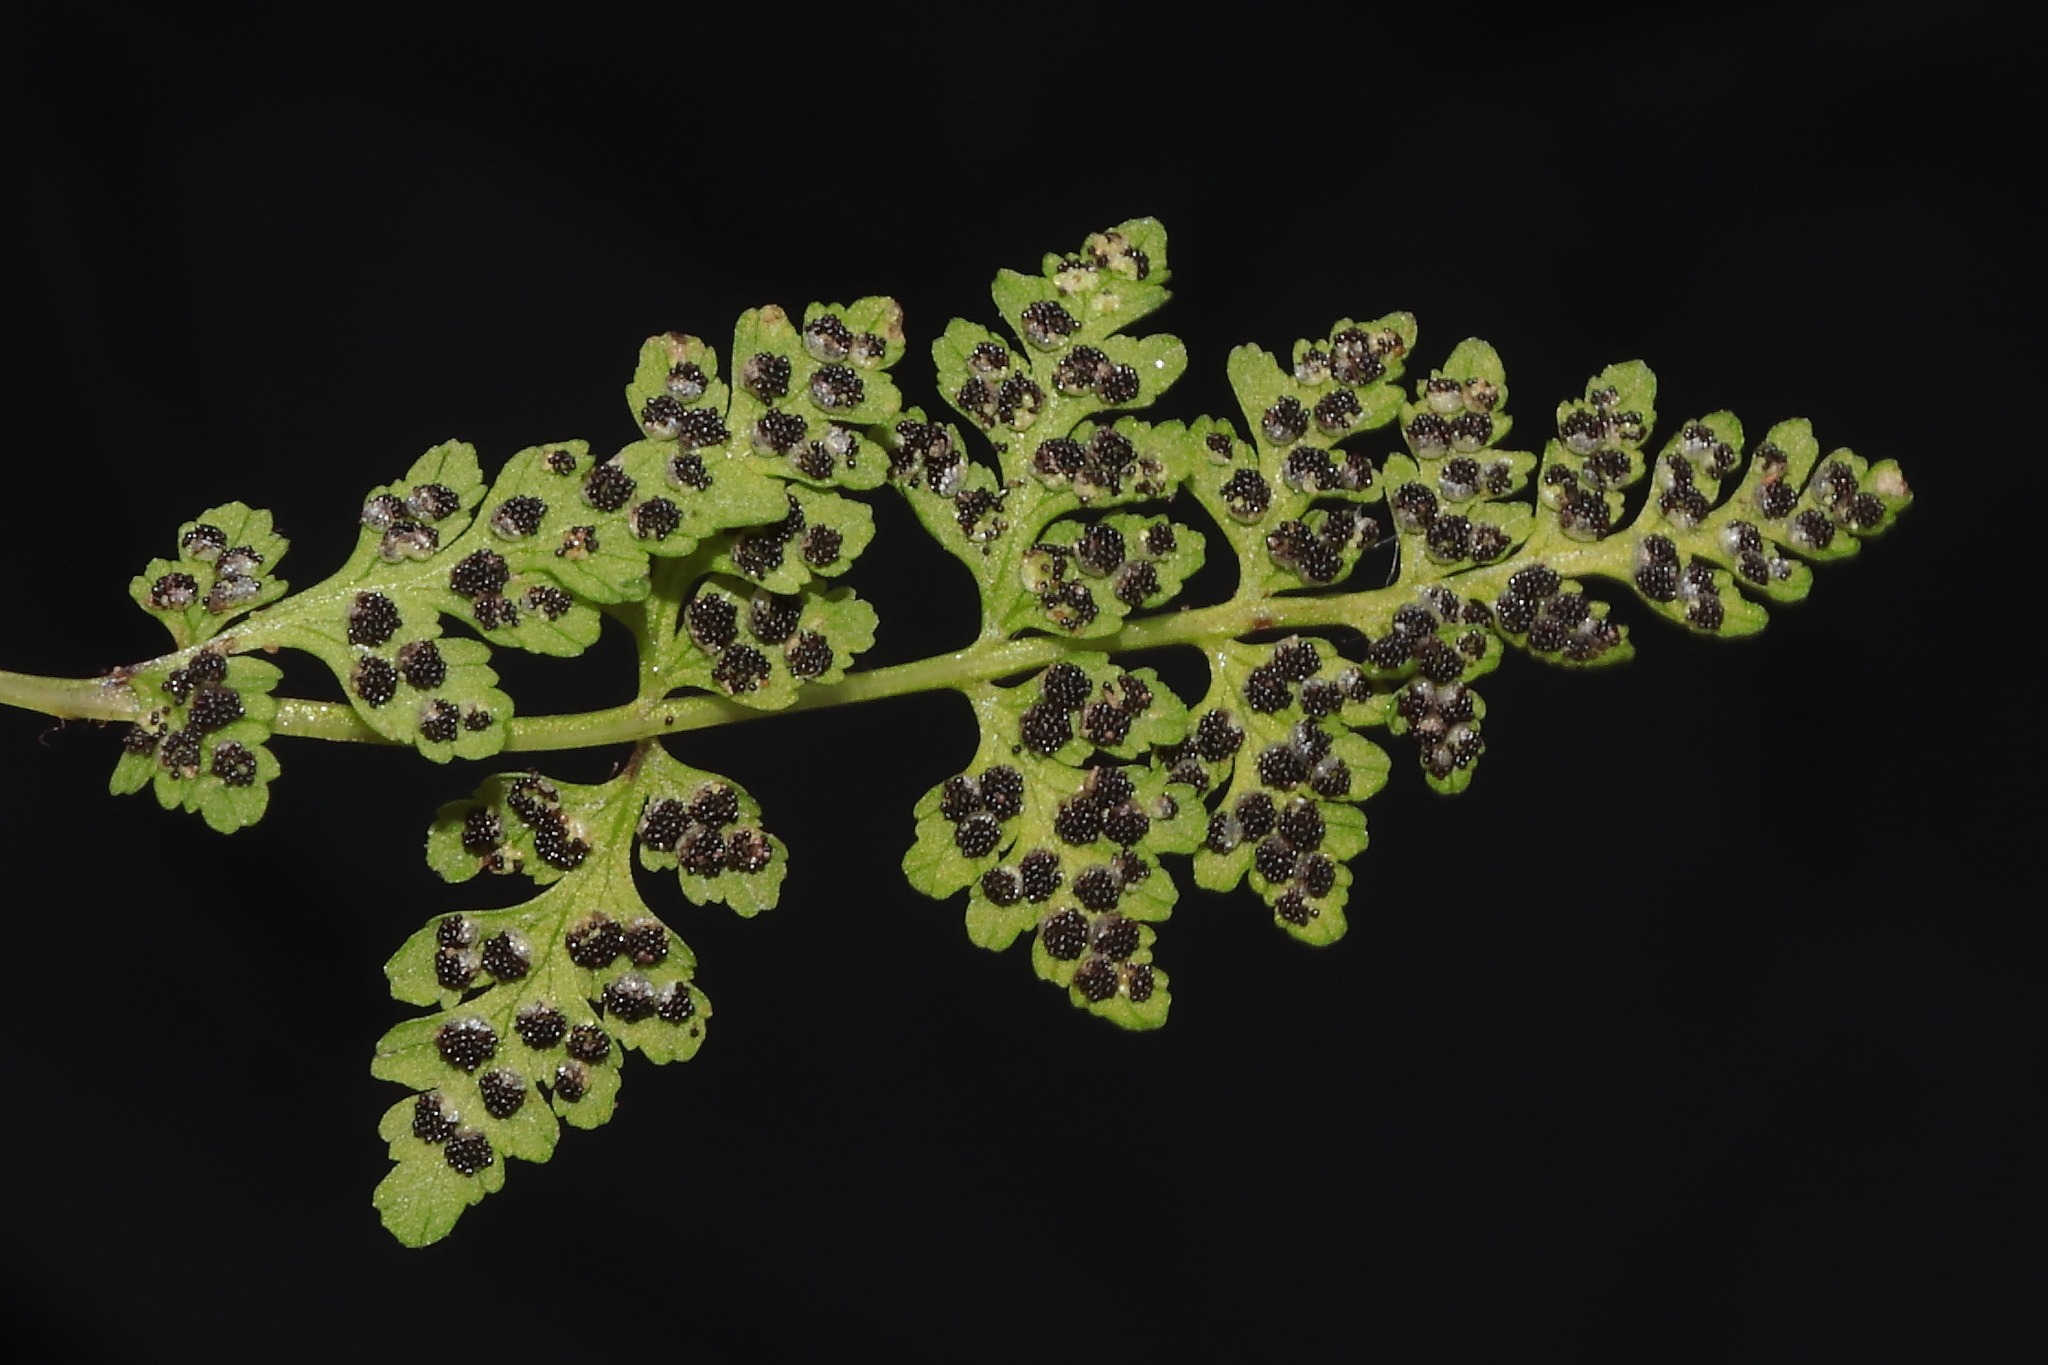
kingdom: Plantae
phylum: Tracheophyta
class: Polypodiopsida
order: Polypodiales
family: Woodsiaceae
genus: Physematium
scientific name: Physematium montevidense
